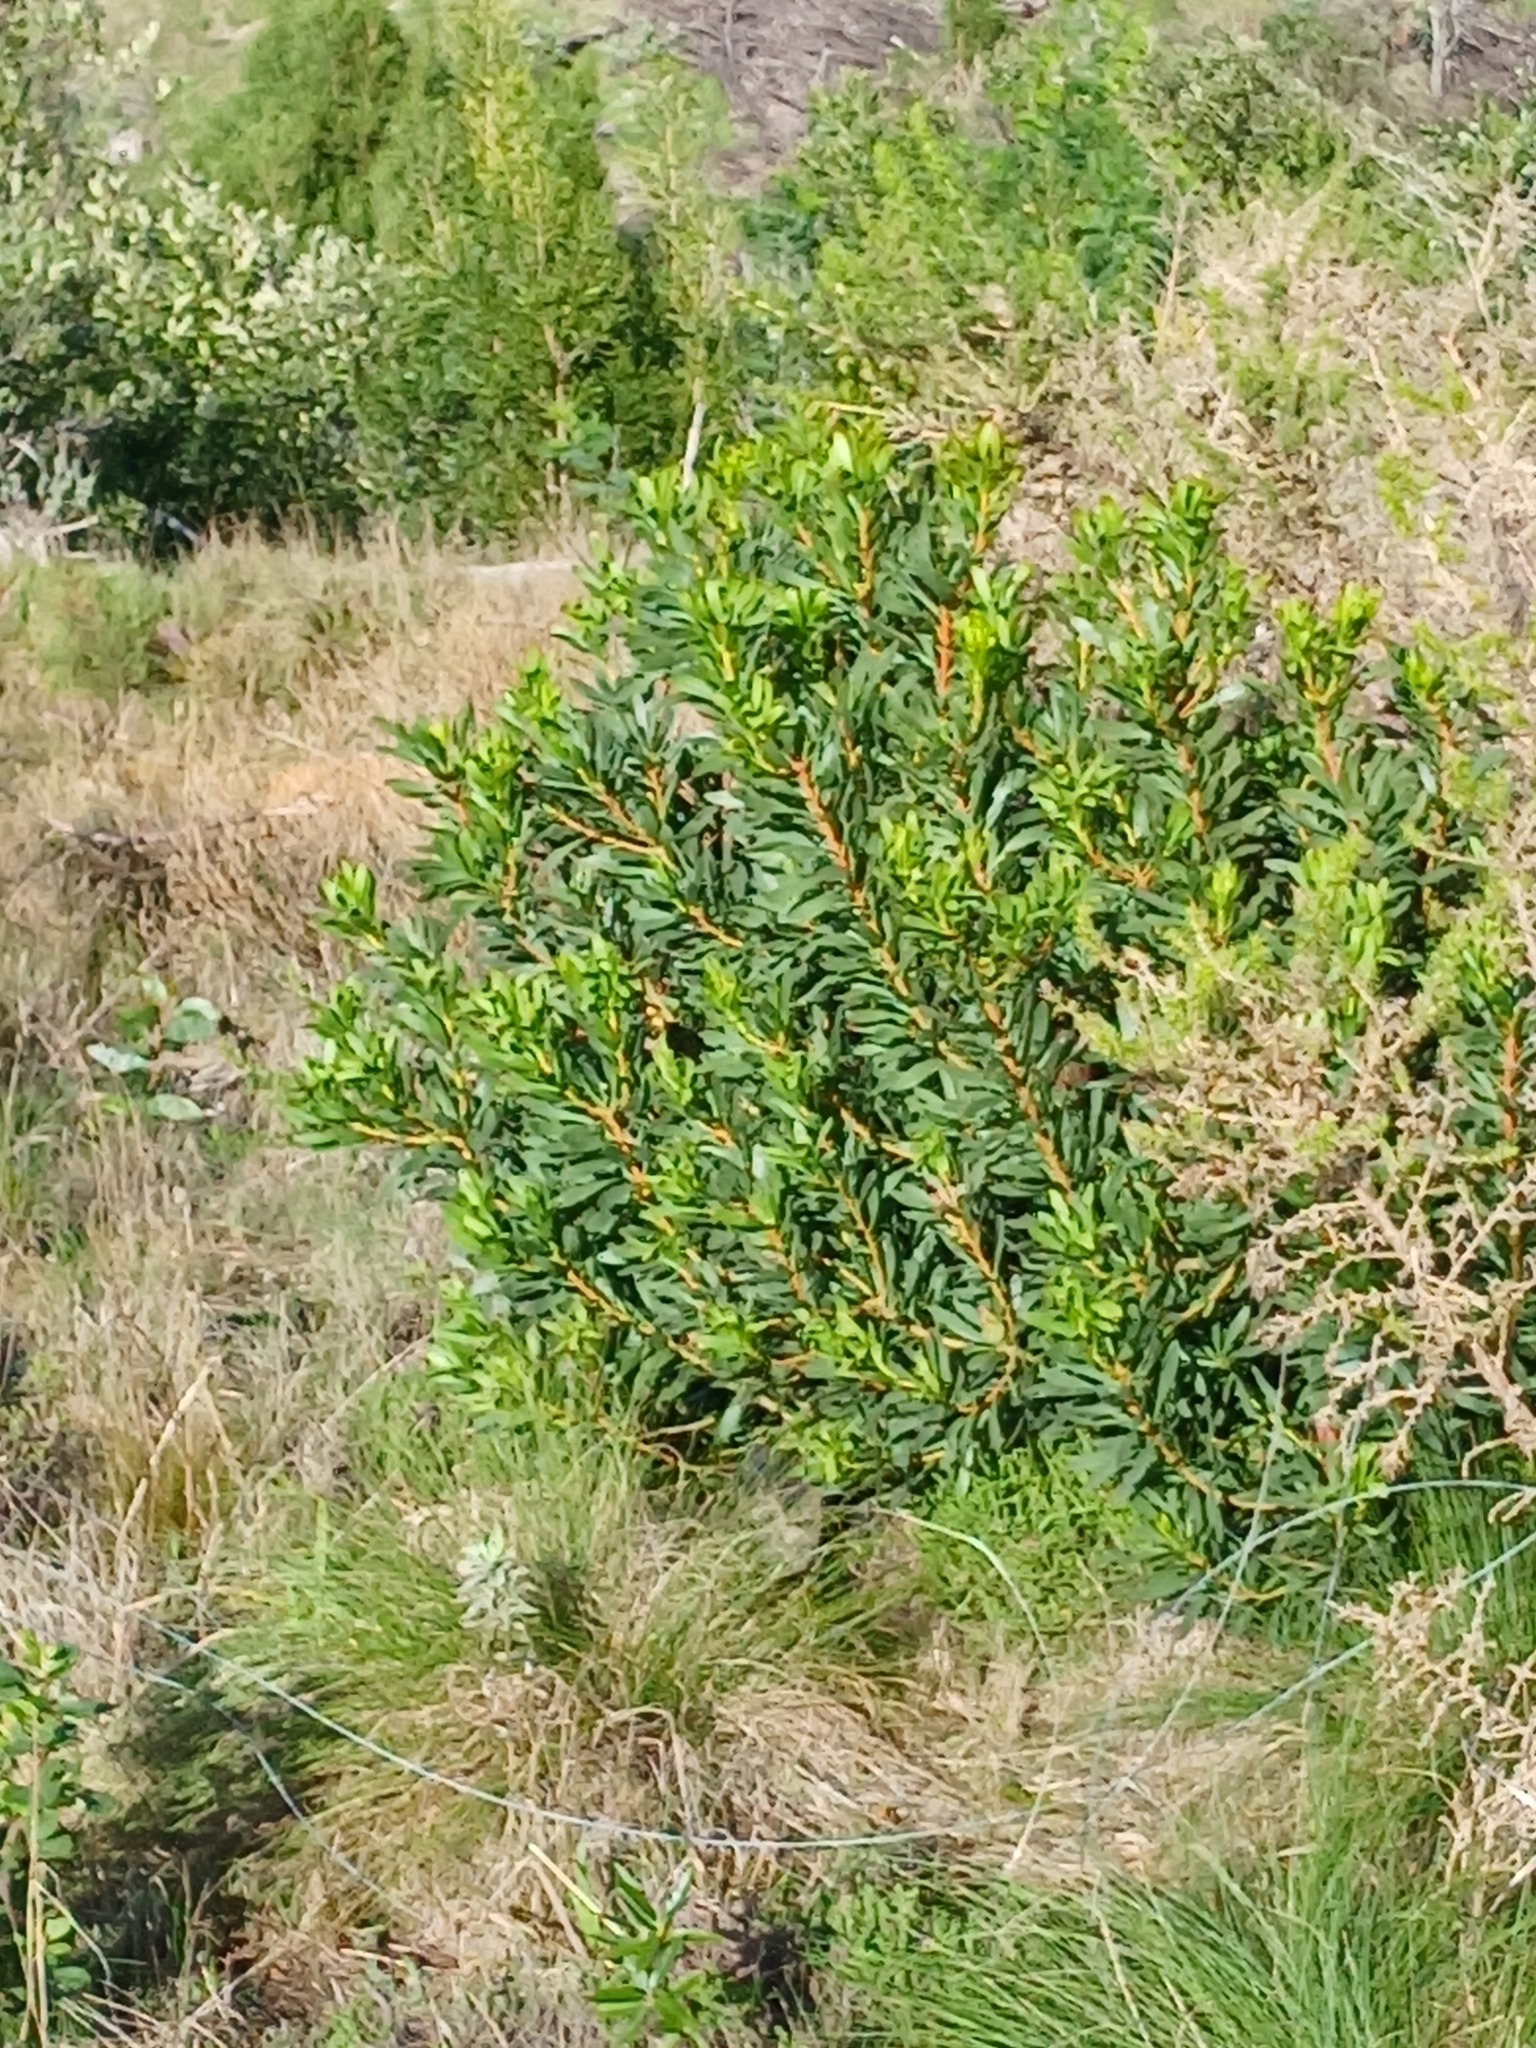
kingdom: Plantae
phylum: Tracheophyta
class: Magnoliopsida
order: Proteales
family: Proteaceae
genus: Protea
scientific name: Protea repens
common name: Sugarbush
